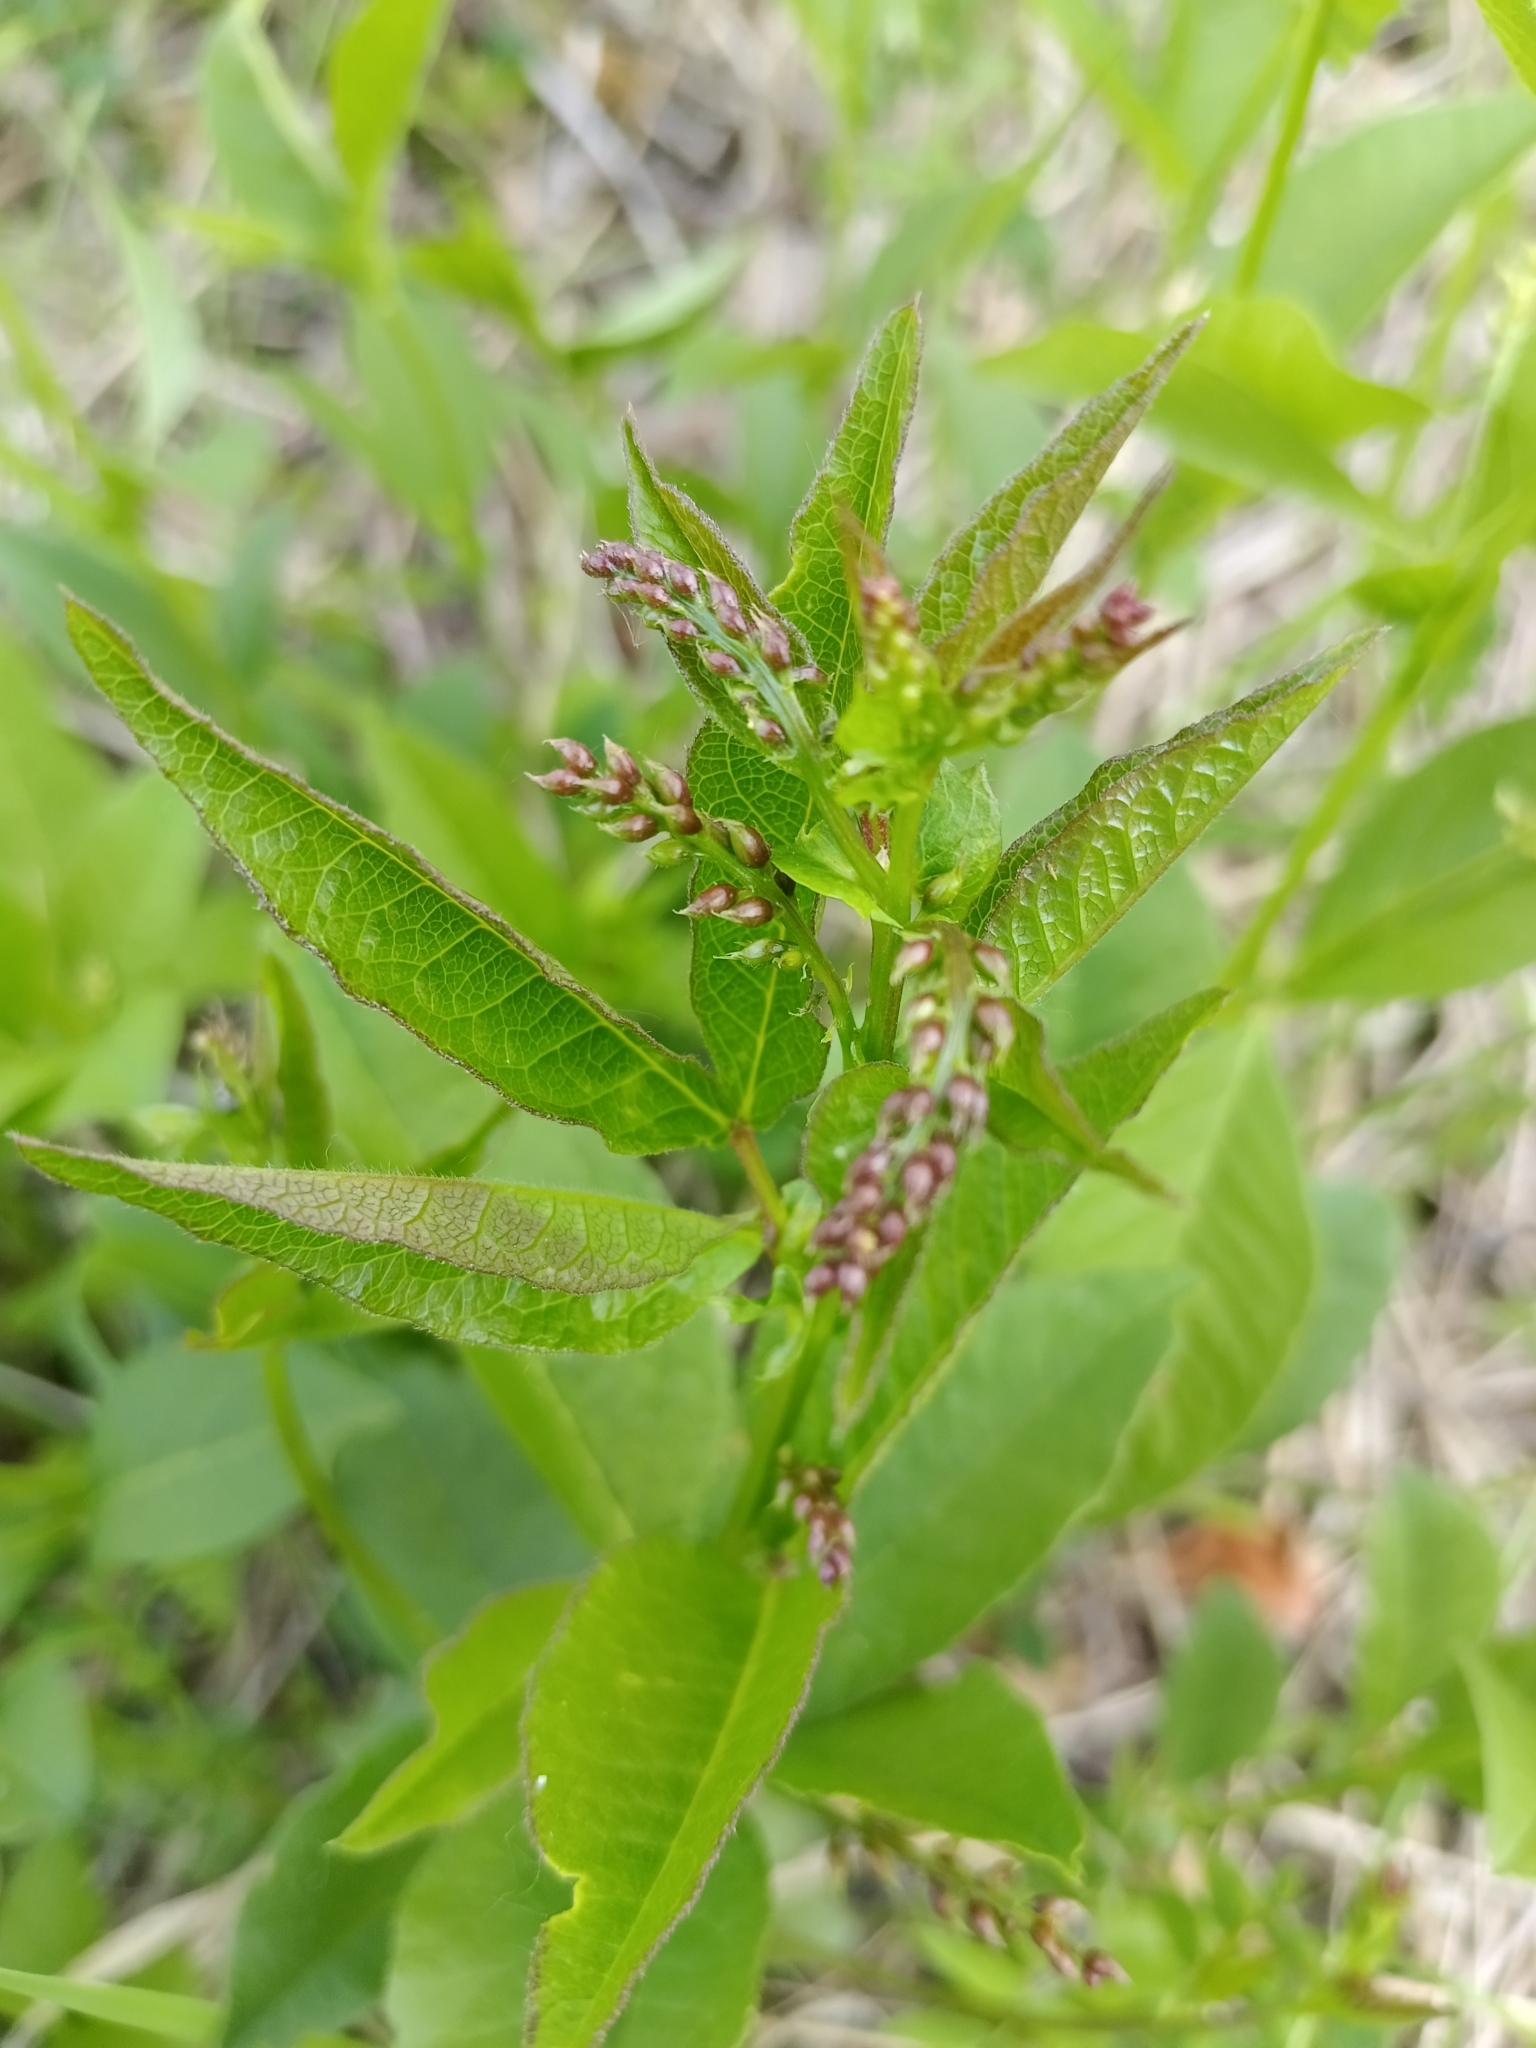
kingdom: Plantae
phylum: Tracheophyta
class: Magnoliopsida
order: Fabales
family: Fabaceae
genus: Vicia
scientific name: Vicia unijuga
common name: Two-leaf vetch
